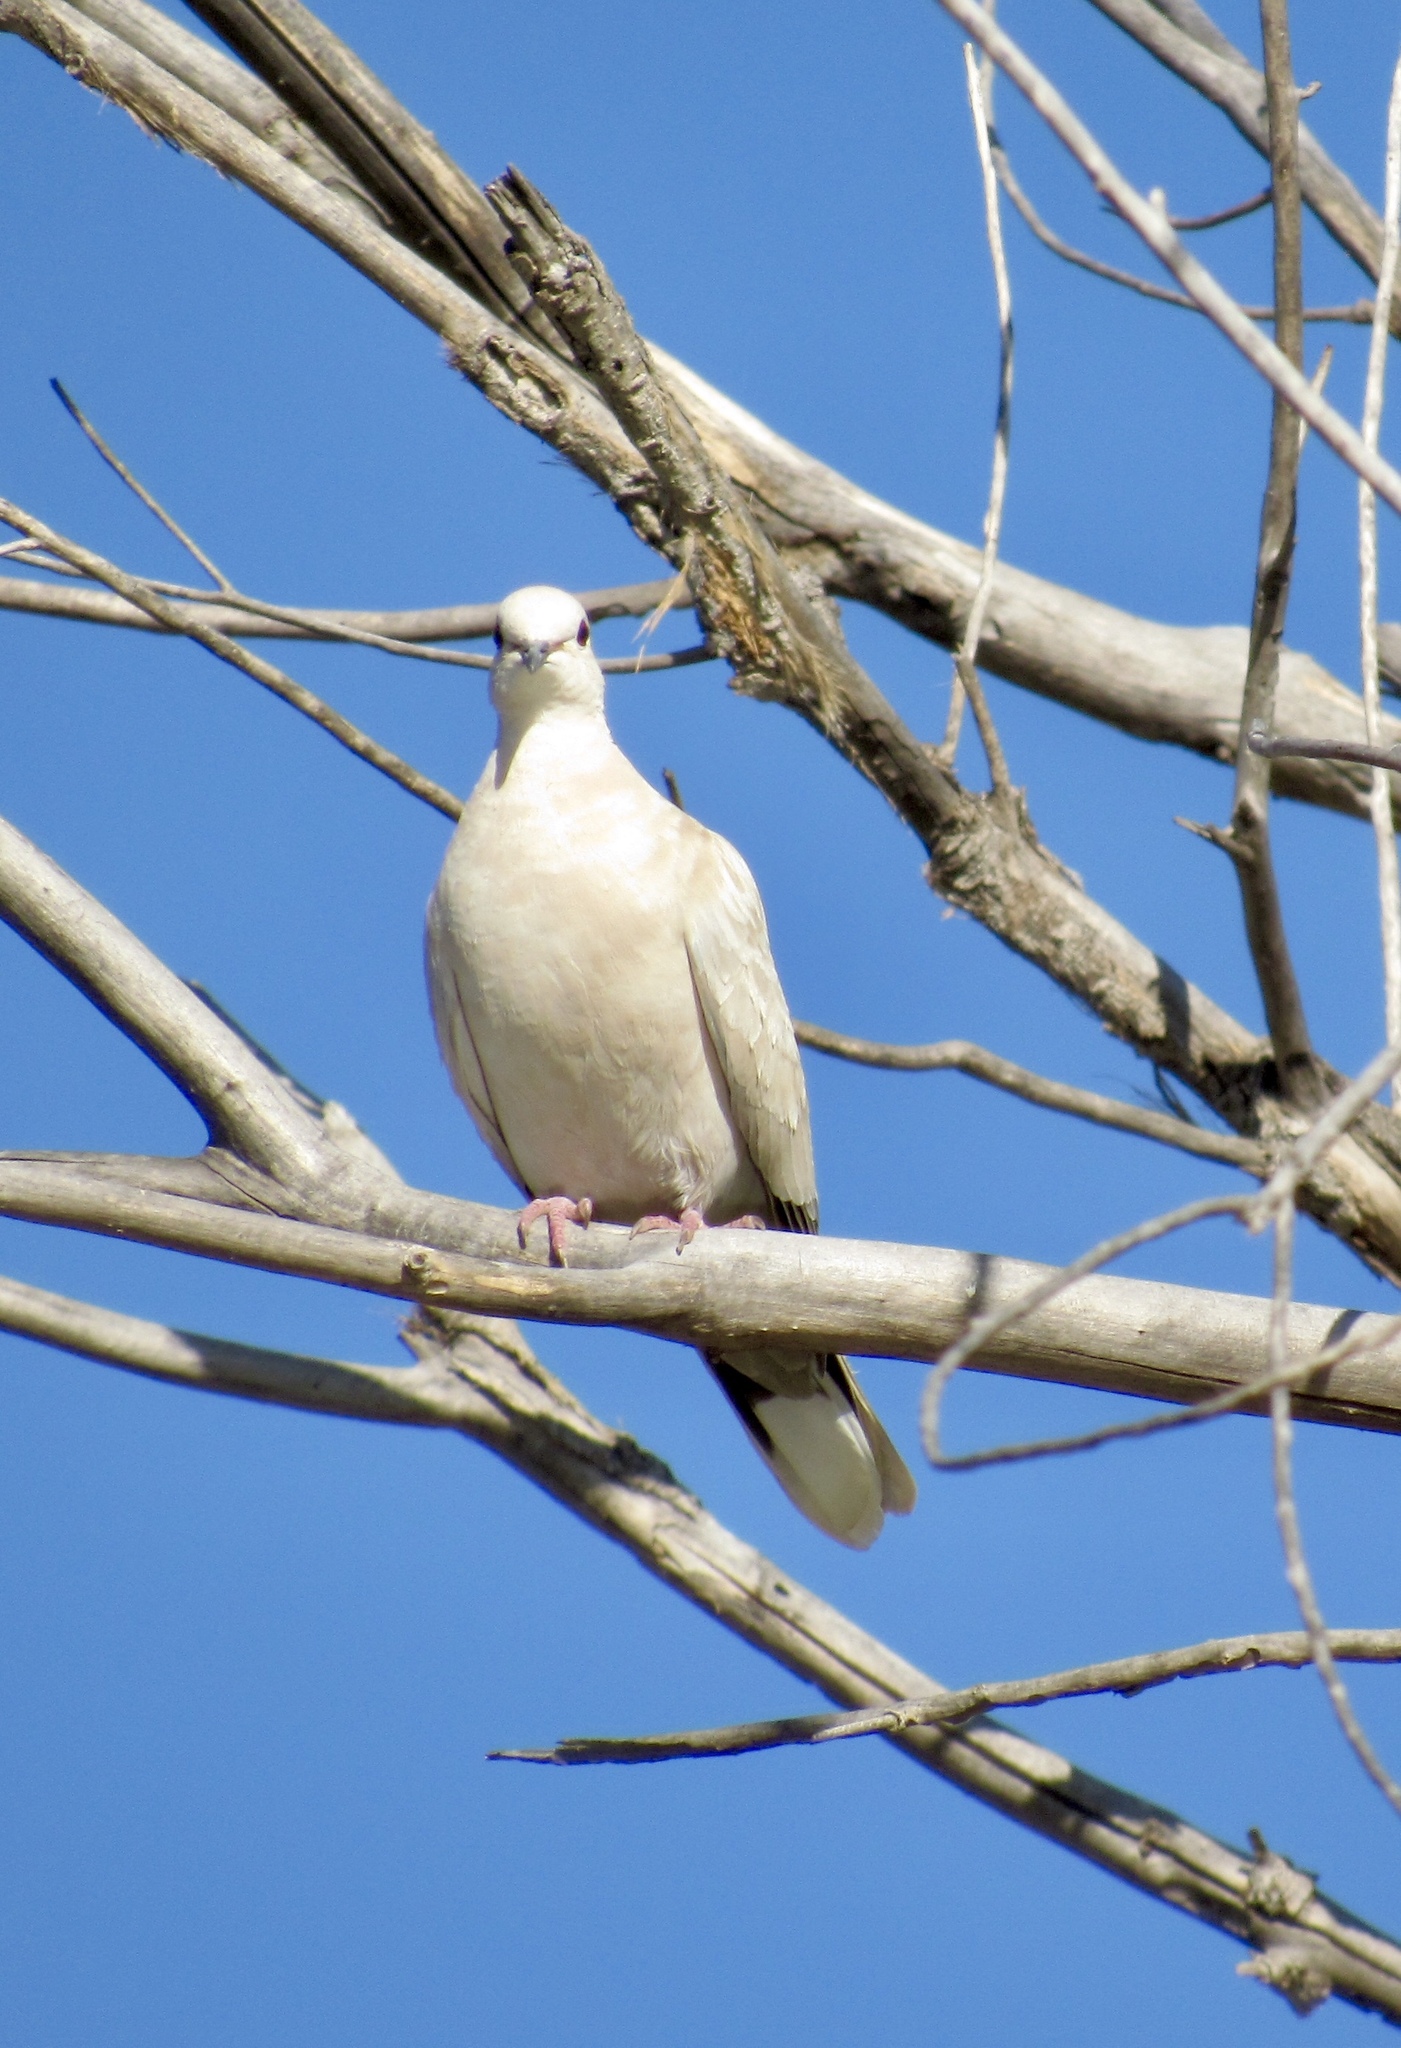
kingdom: Animalia
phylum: Chordata
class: Aves
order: Columbiformes
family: Columbidae
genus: Streptopelia
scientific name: Streptopelia decaocto
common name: Eurasian collared dove
